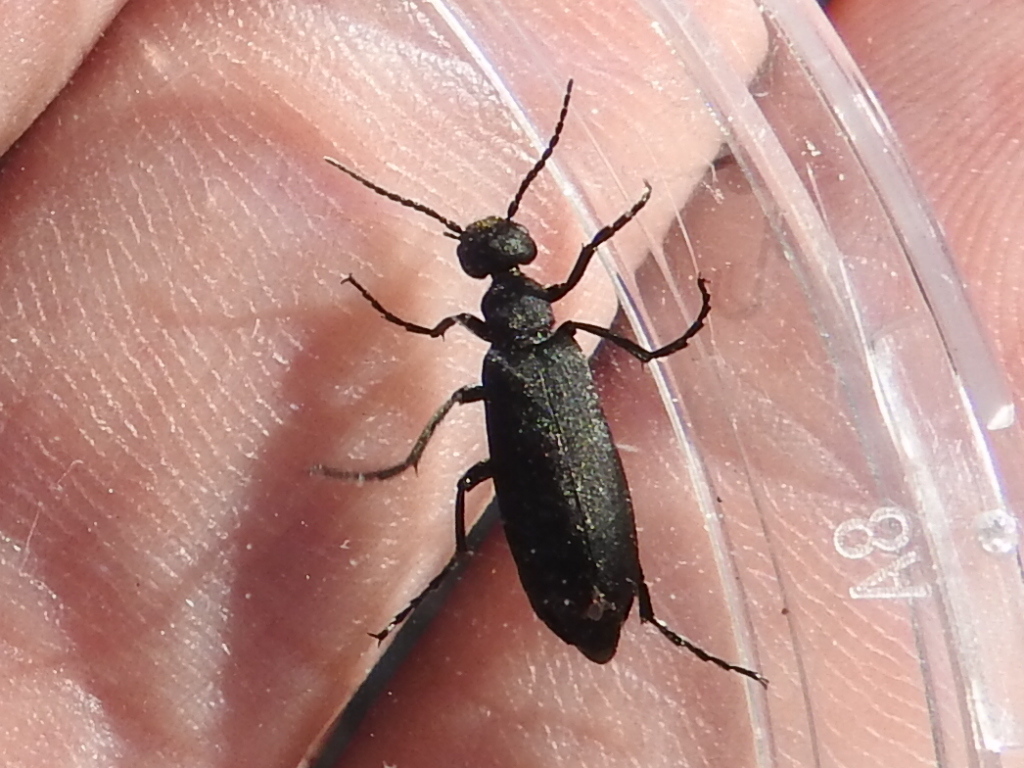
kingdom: Animalia
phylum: Arthropoda
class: Insecta
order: Coleoptera
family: Meloidae
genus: Epicauta
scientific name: Epicauta pensylvanica
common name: Black blister beetle
